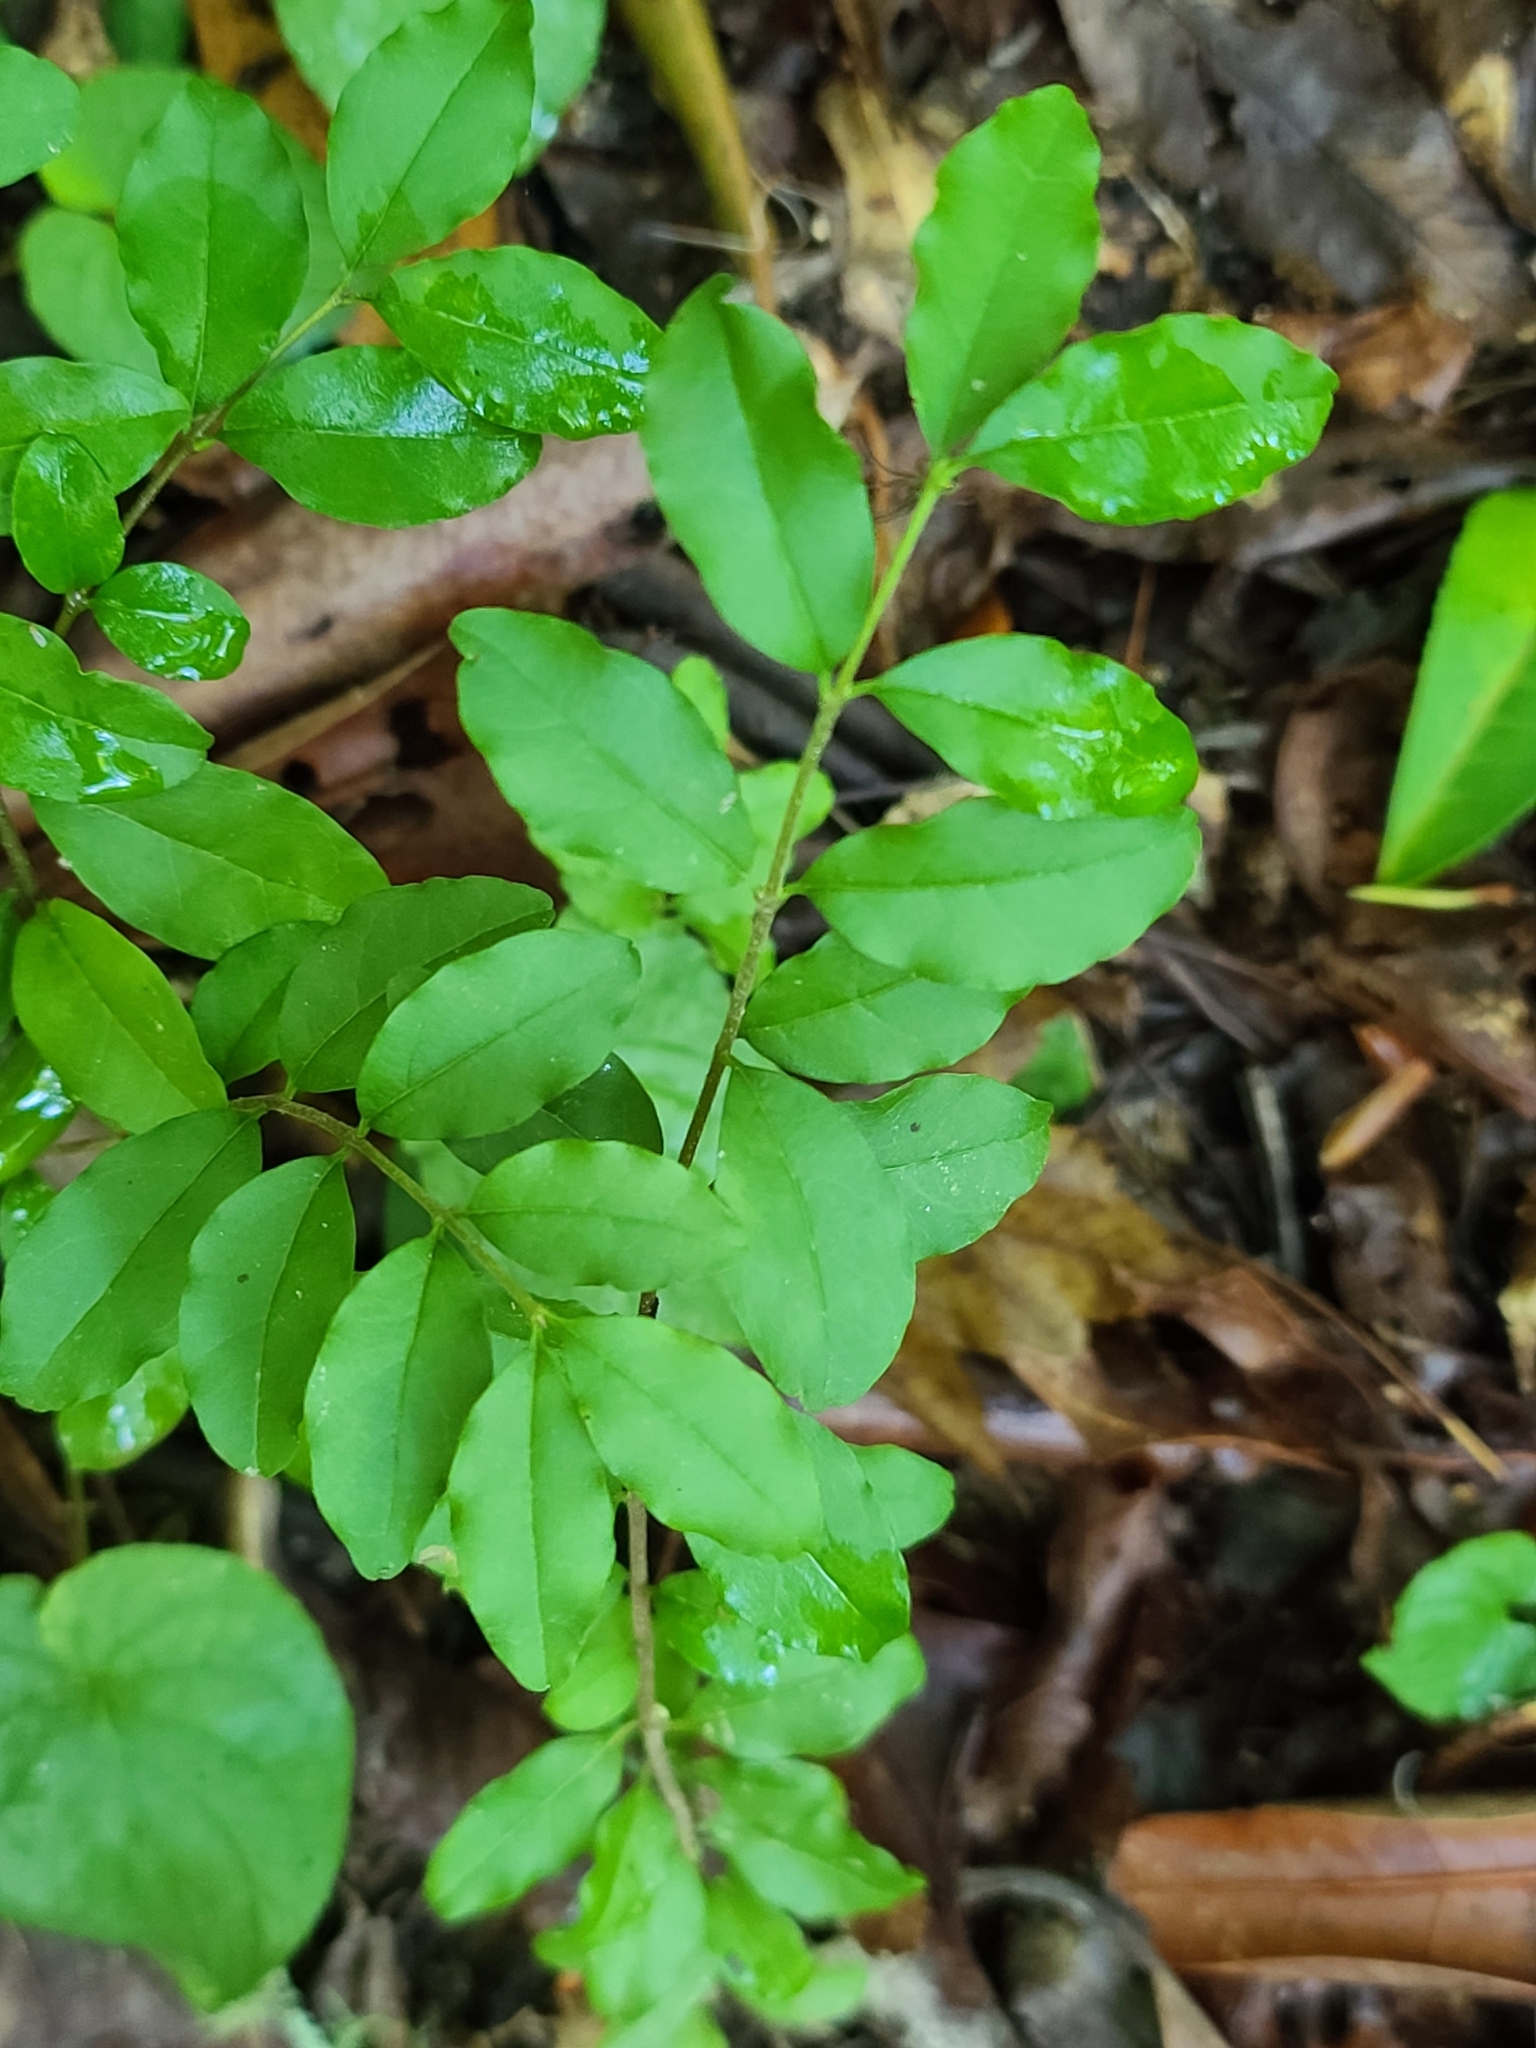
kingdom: Plantae
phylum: Tracheophyta
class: Magnoliopsida
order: Lamiales
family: Oleaceae
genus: Ligustrum
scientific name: Ligustrum sinense
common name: Chinese privet
